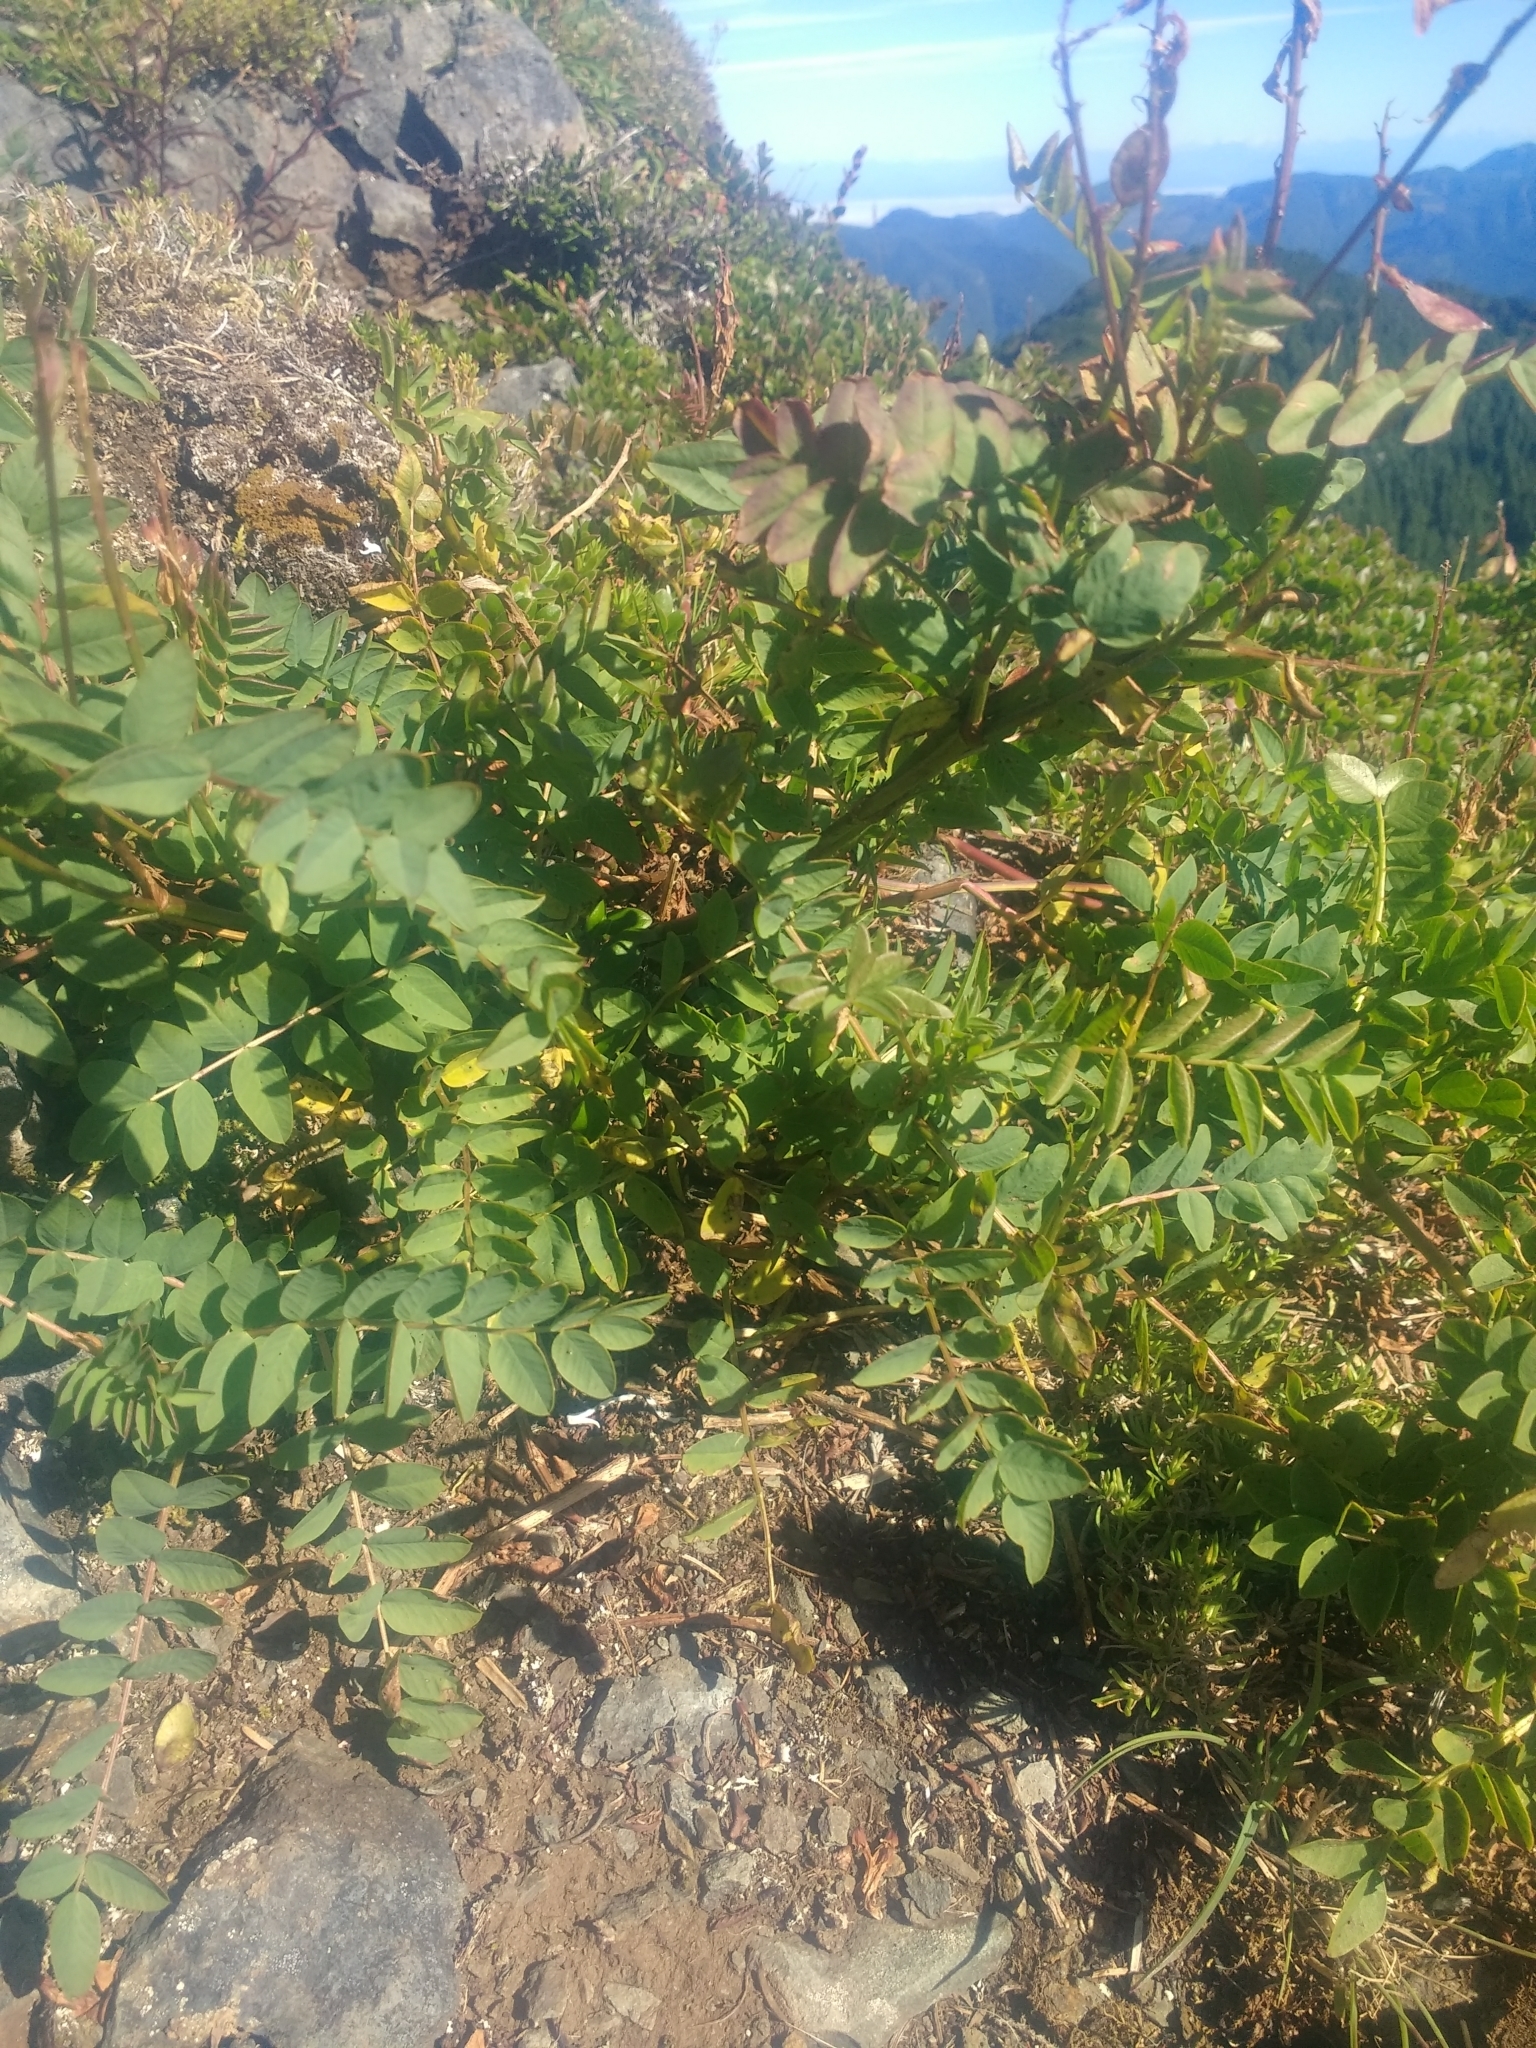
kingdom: Plantae
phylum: Tracheophyta
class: Magnoliopsida
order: Fabales
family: Fabaceae
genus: Hedysarum
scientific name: Hedysarum occidentale
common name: Western hedysarum
